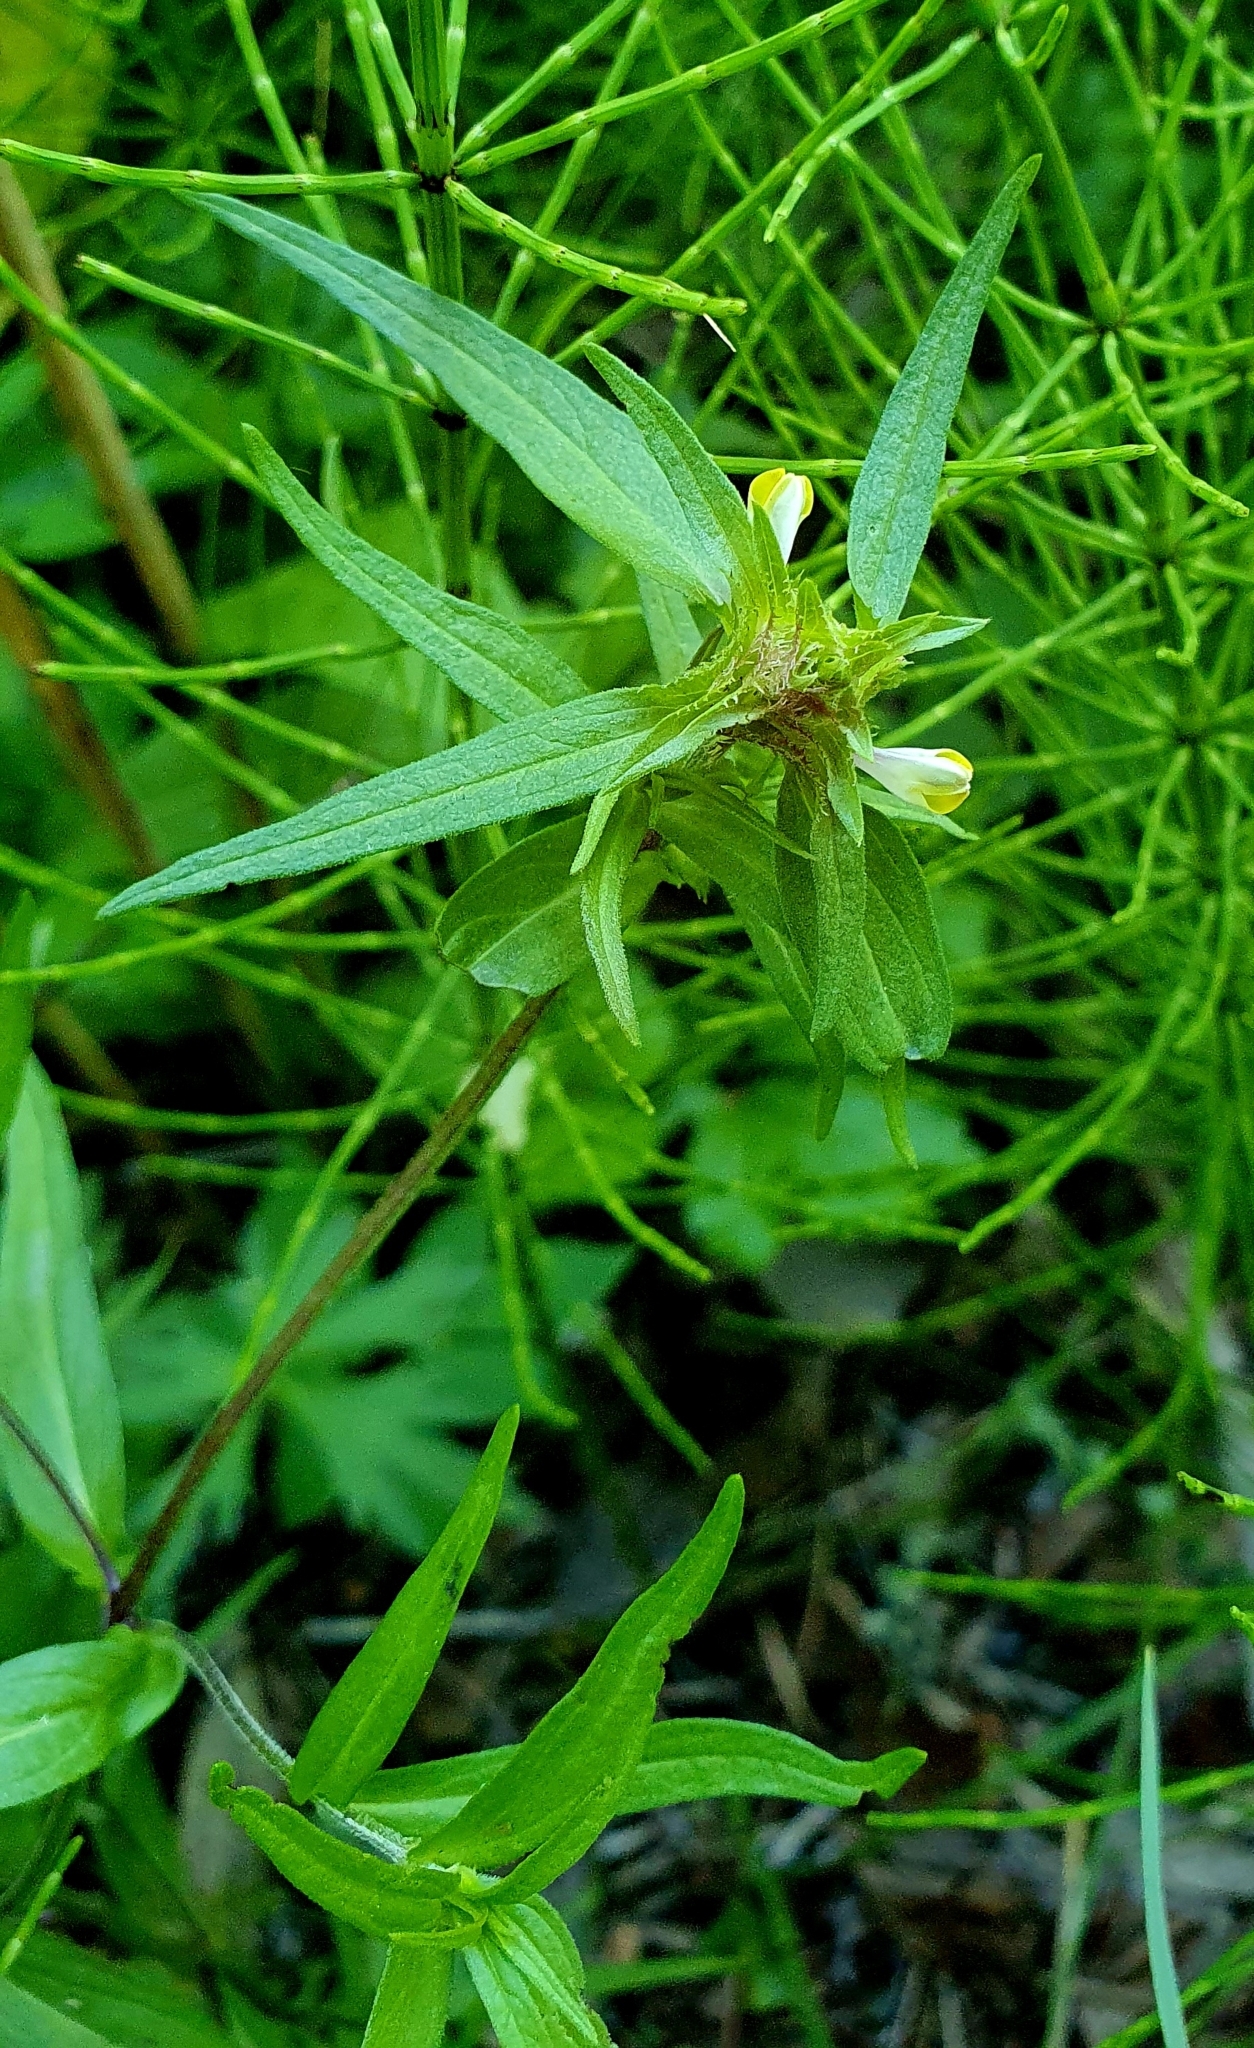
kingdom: Plantae
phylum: Tracheophyta
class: Magnoliopsida
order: Lamiales
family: Orobanchaceae
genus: Melampyrum
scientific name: Melampyrum cristatum
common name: Crested cow-wheat
